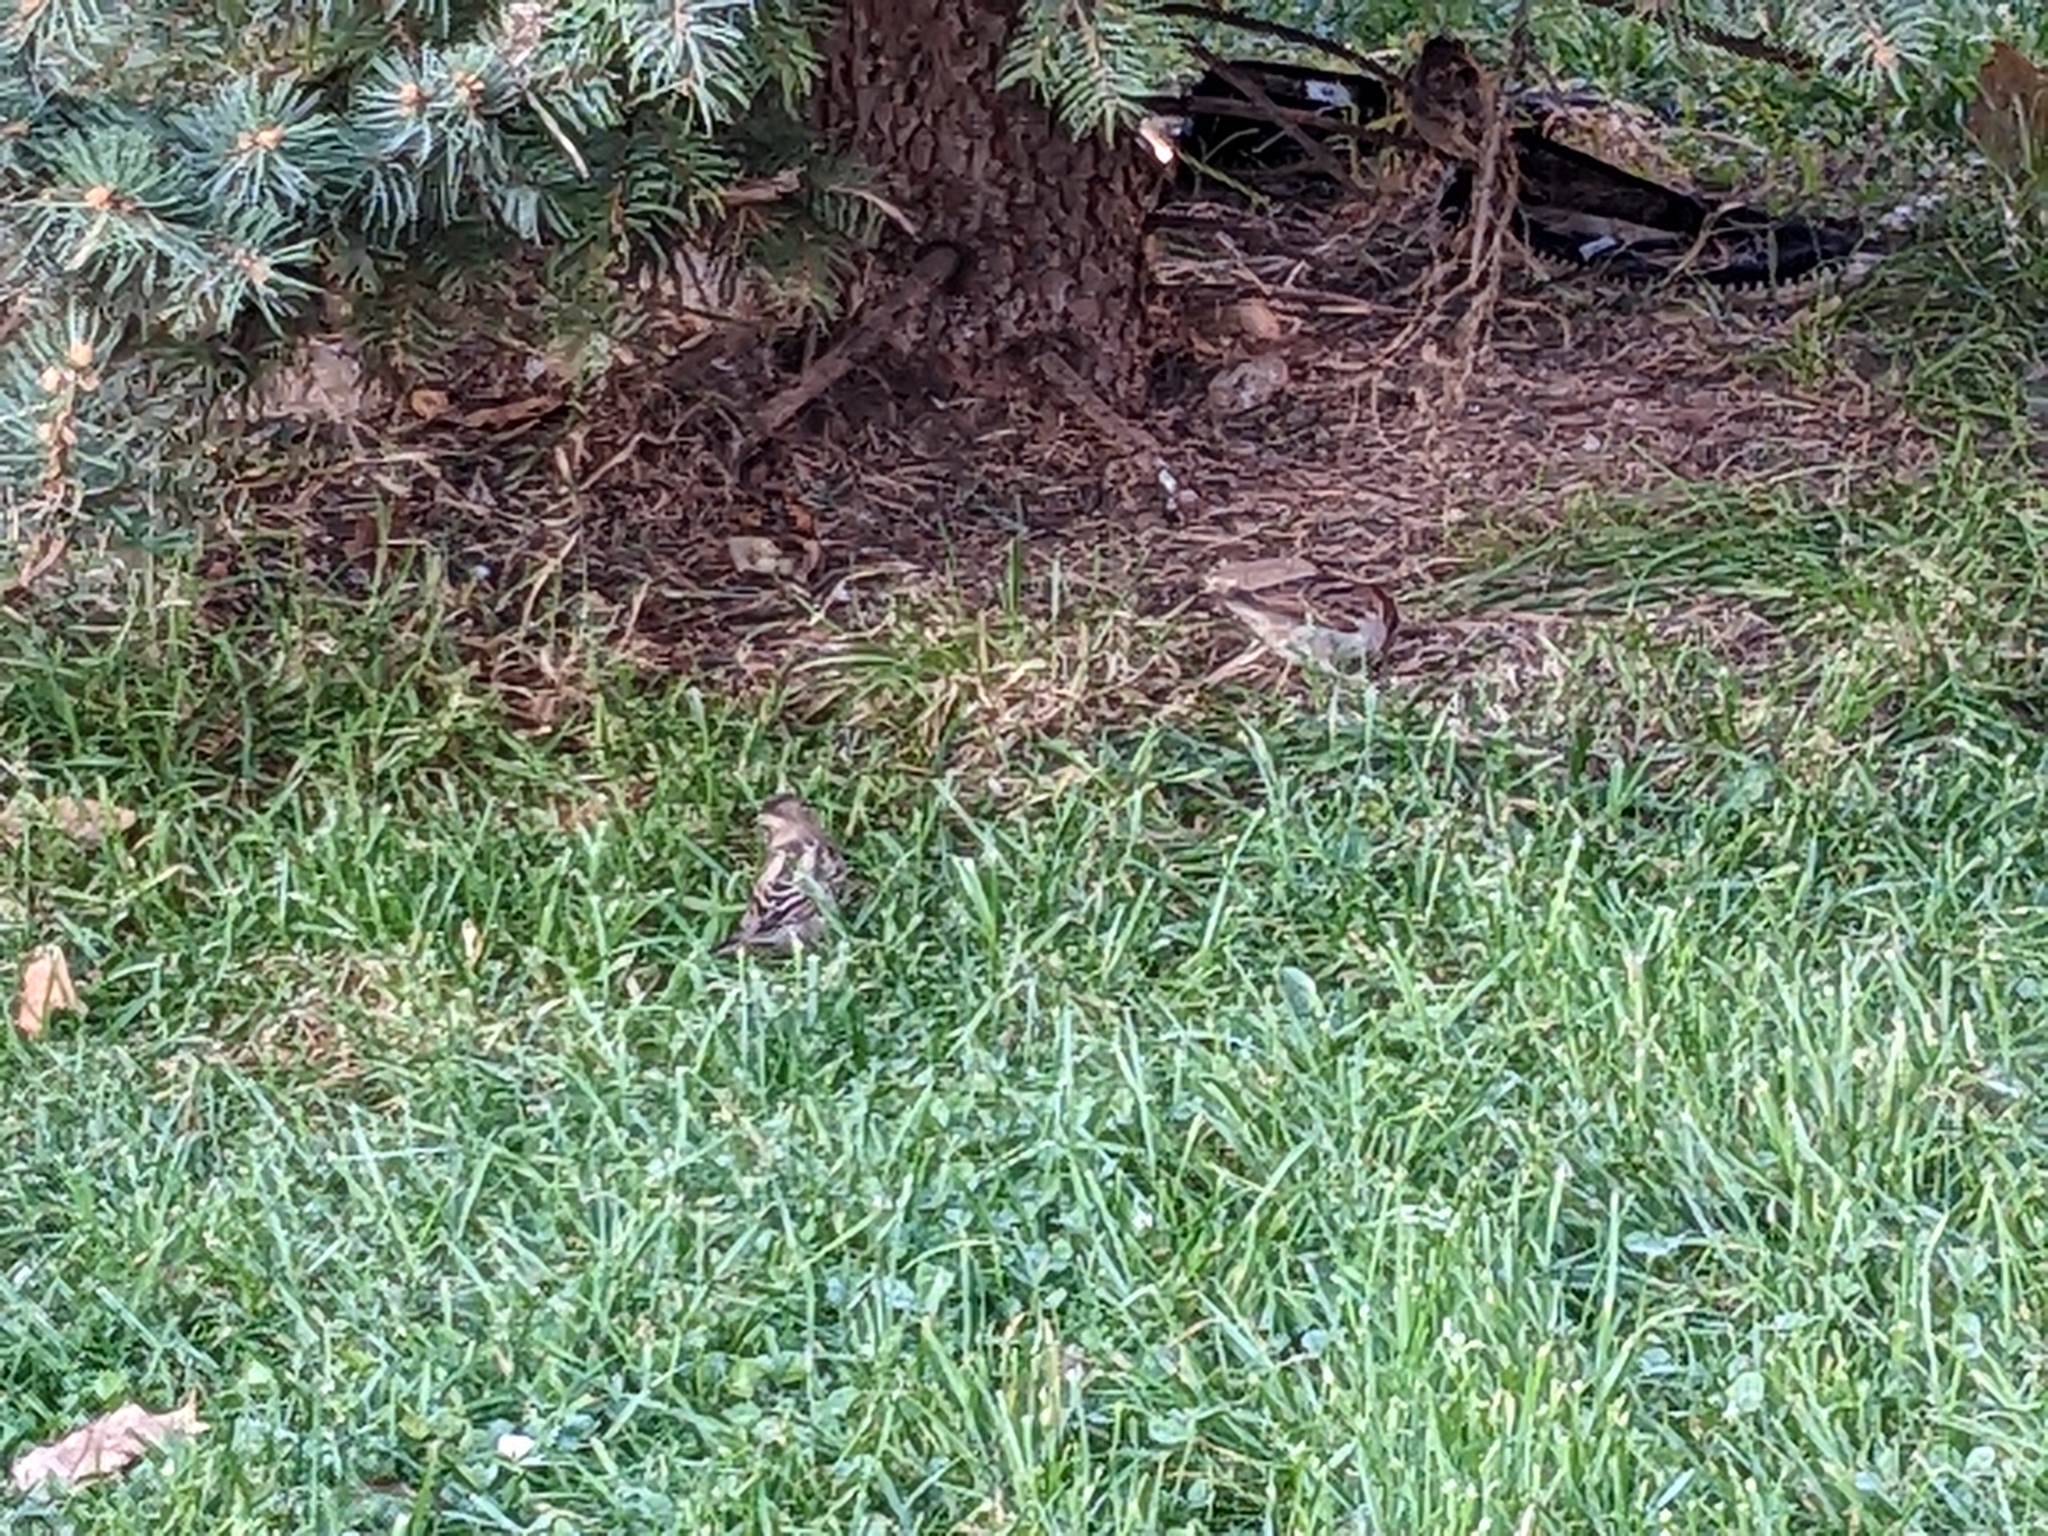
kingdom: Animalia
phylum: Chordata
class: Aves
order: Passeriformes
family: Passeridae
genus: Passer
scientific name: Passer domesticus
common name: House sparrow
